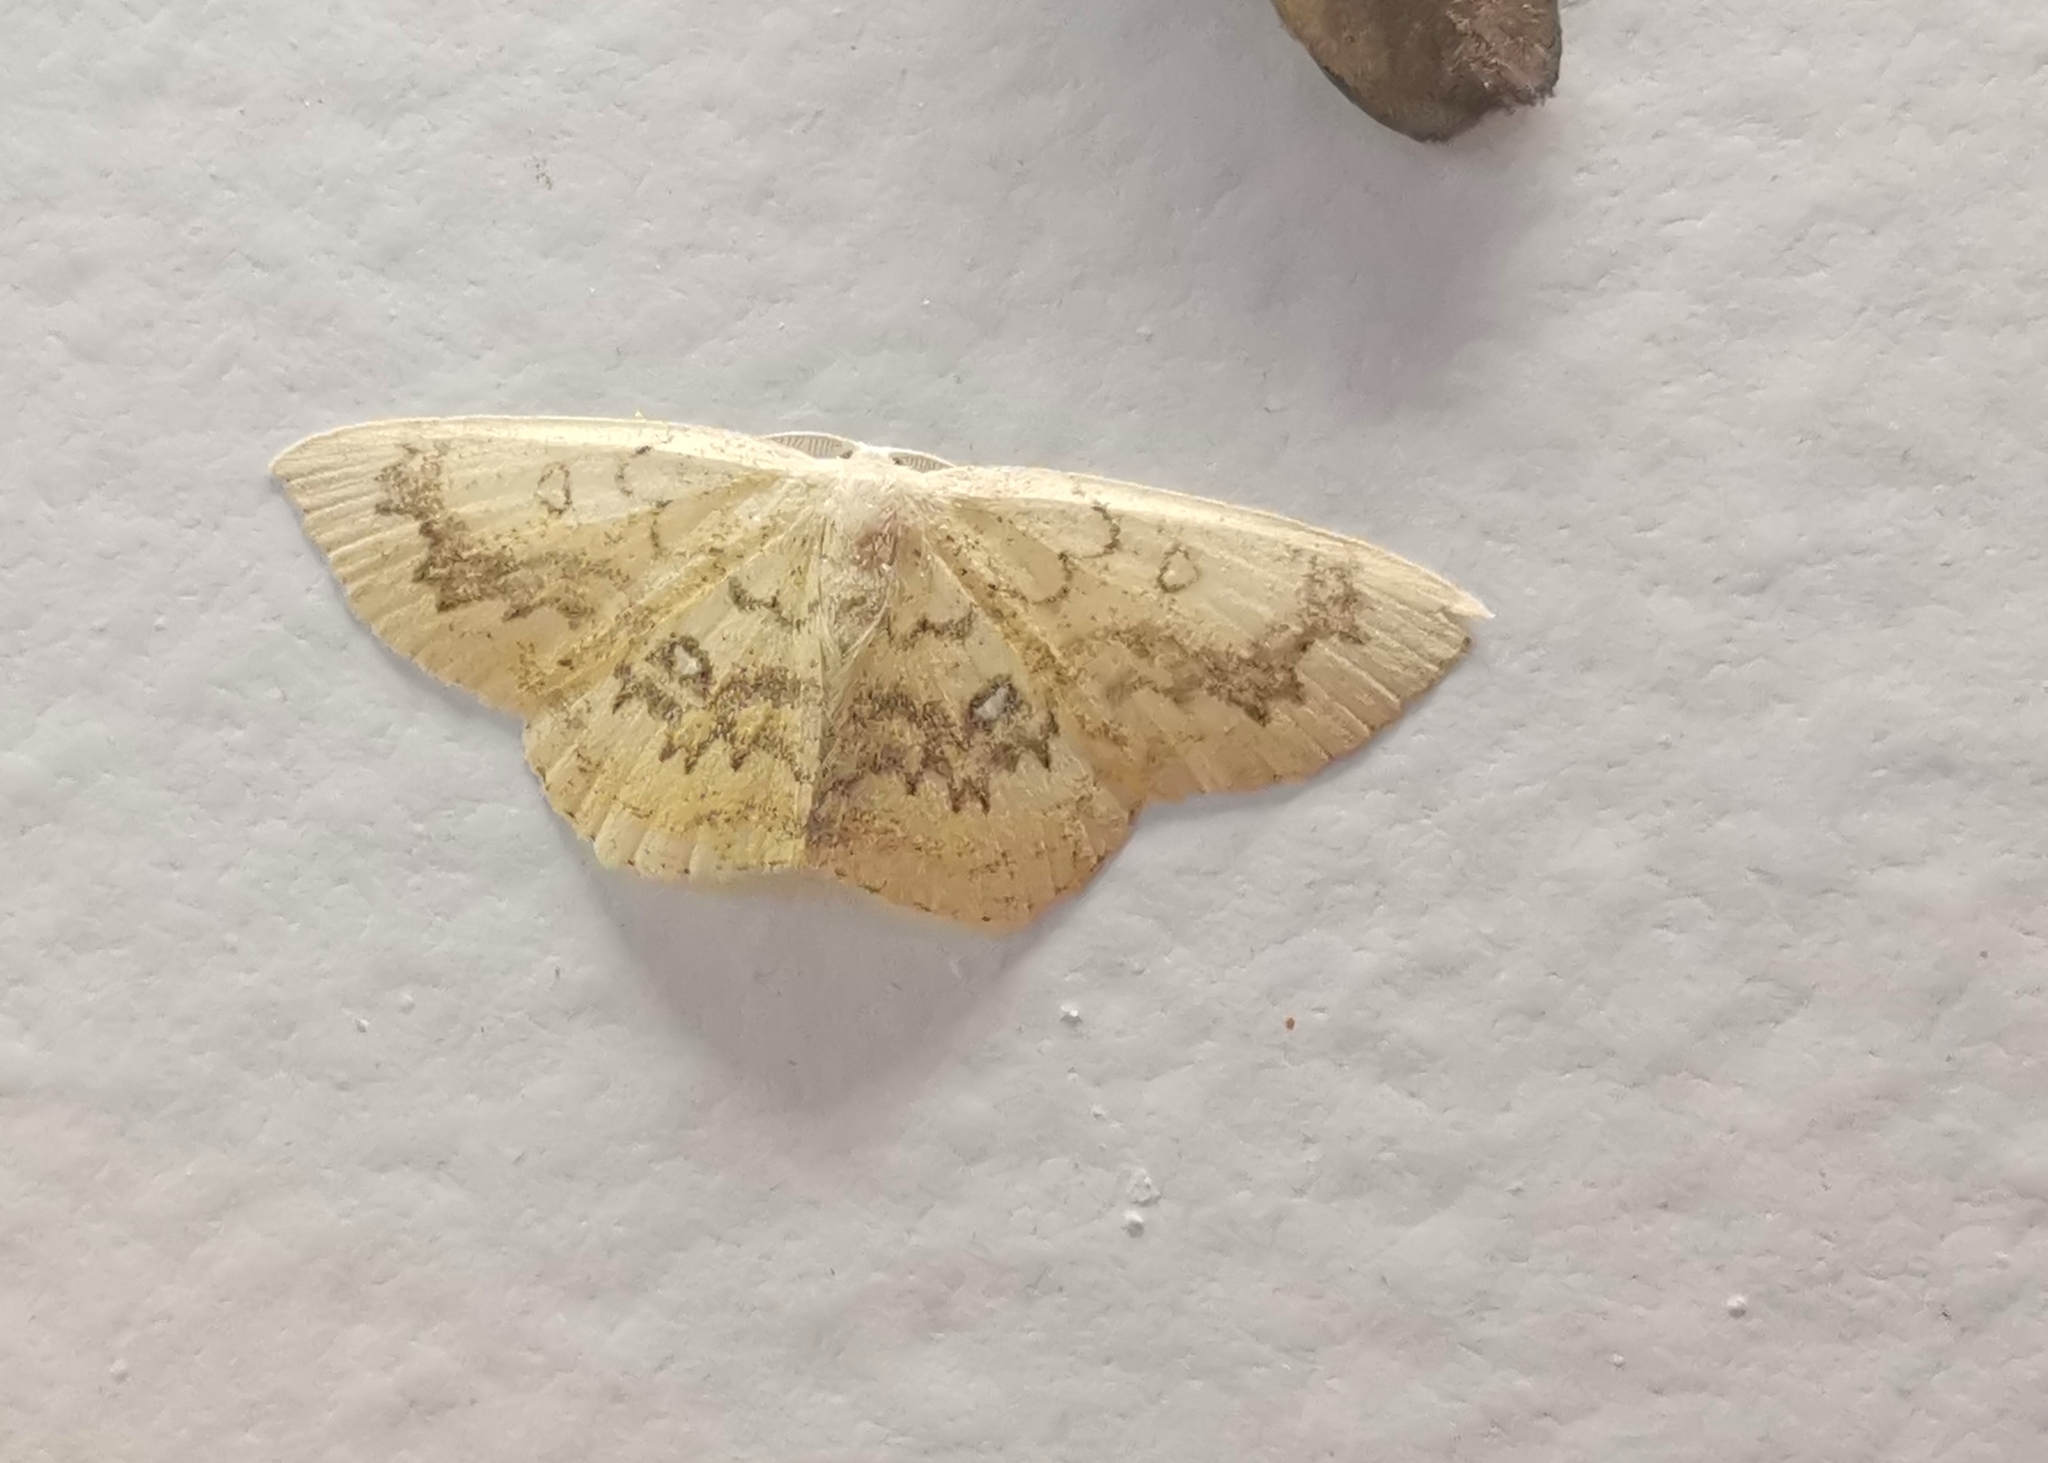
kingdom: Animalia
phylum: Arthropoda
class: Insecta
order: Lepidoptera
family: Geometridae
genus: Cyclophora
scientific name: Cyclophora annularia
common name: Mocha
